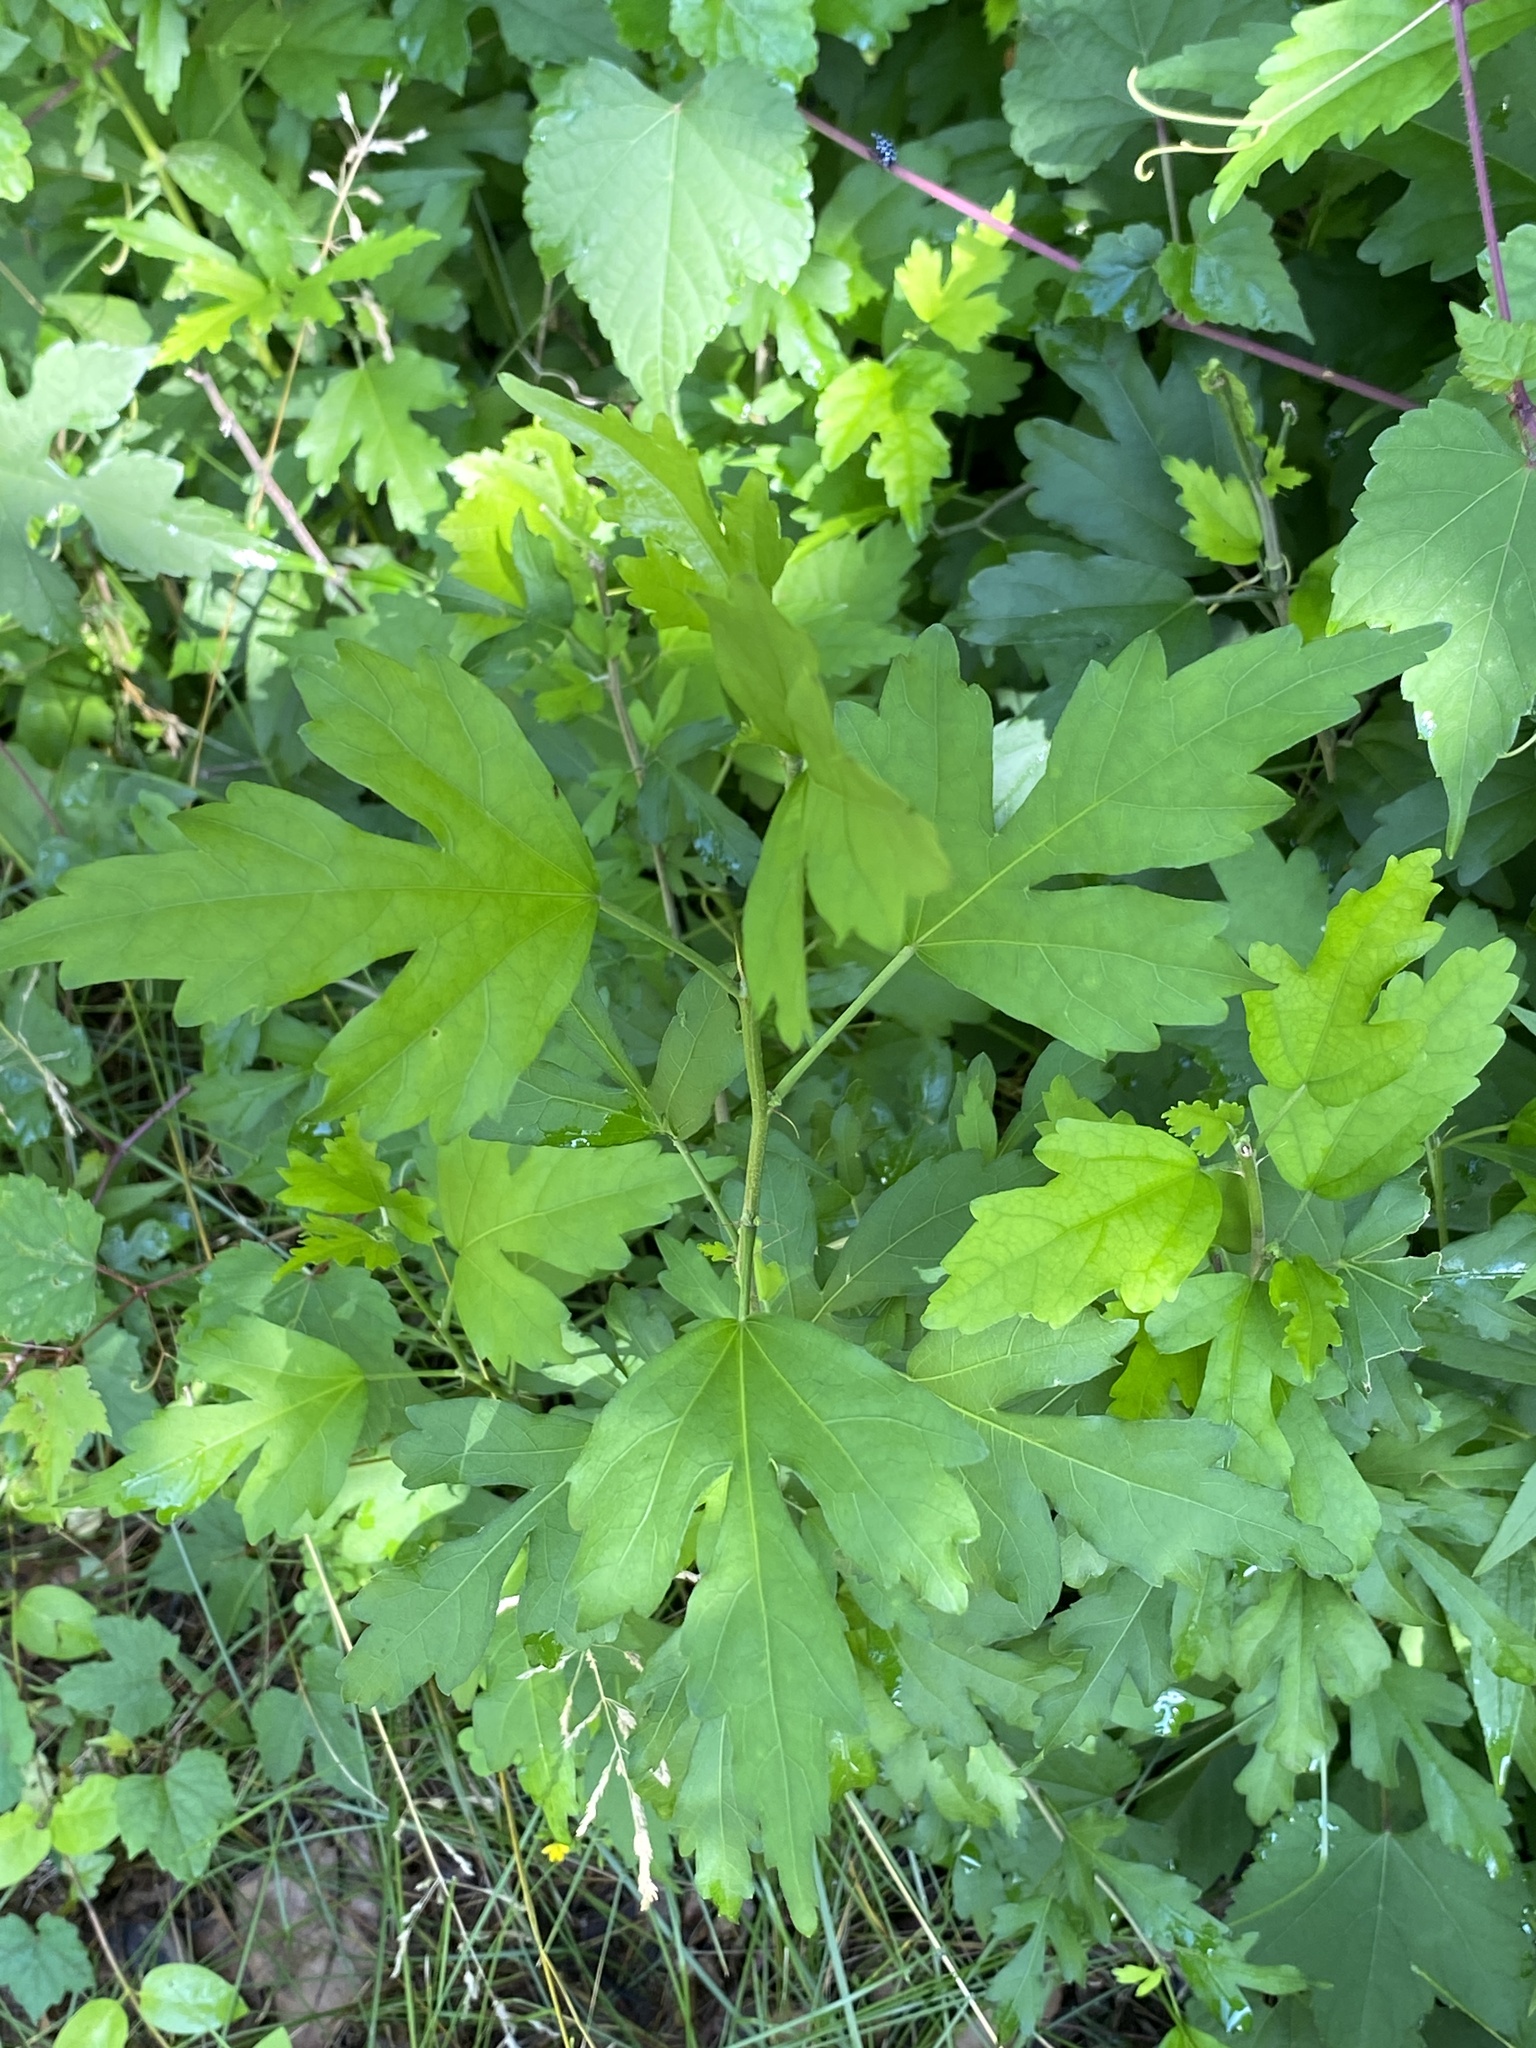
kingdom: Plantae
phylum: Tracheophyta
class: Magnoliopsida
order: Malvales
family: Malvaceae
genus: Hibiscus
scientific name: Hibiscus syriacus
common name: Syrian ketmia
